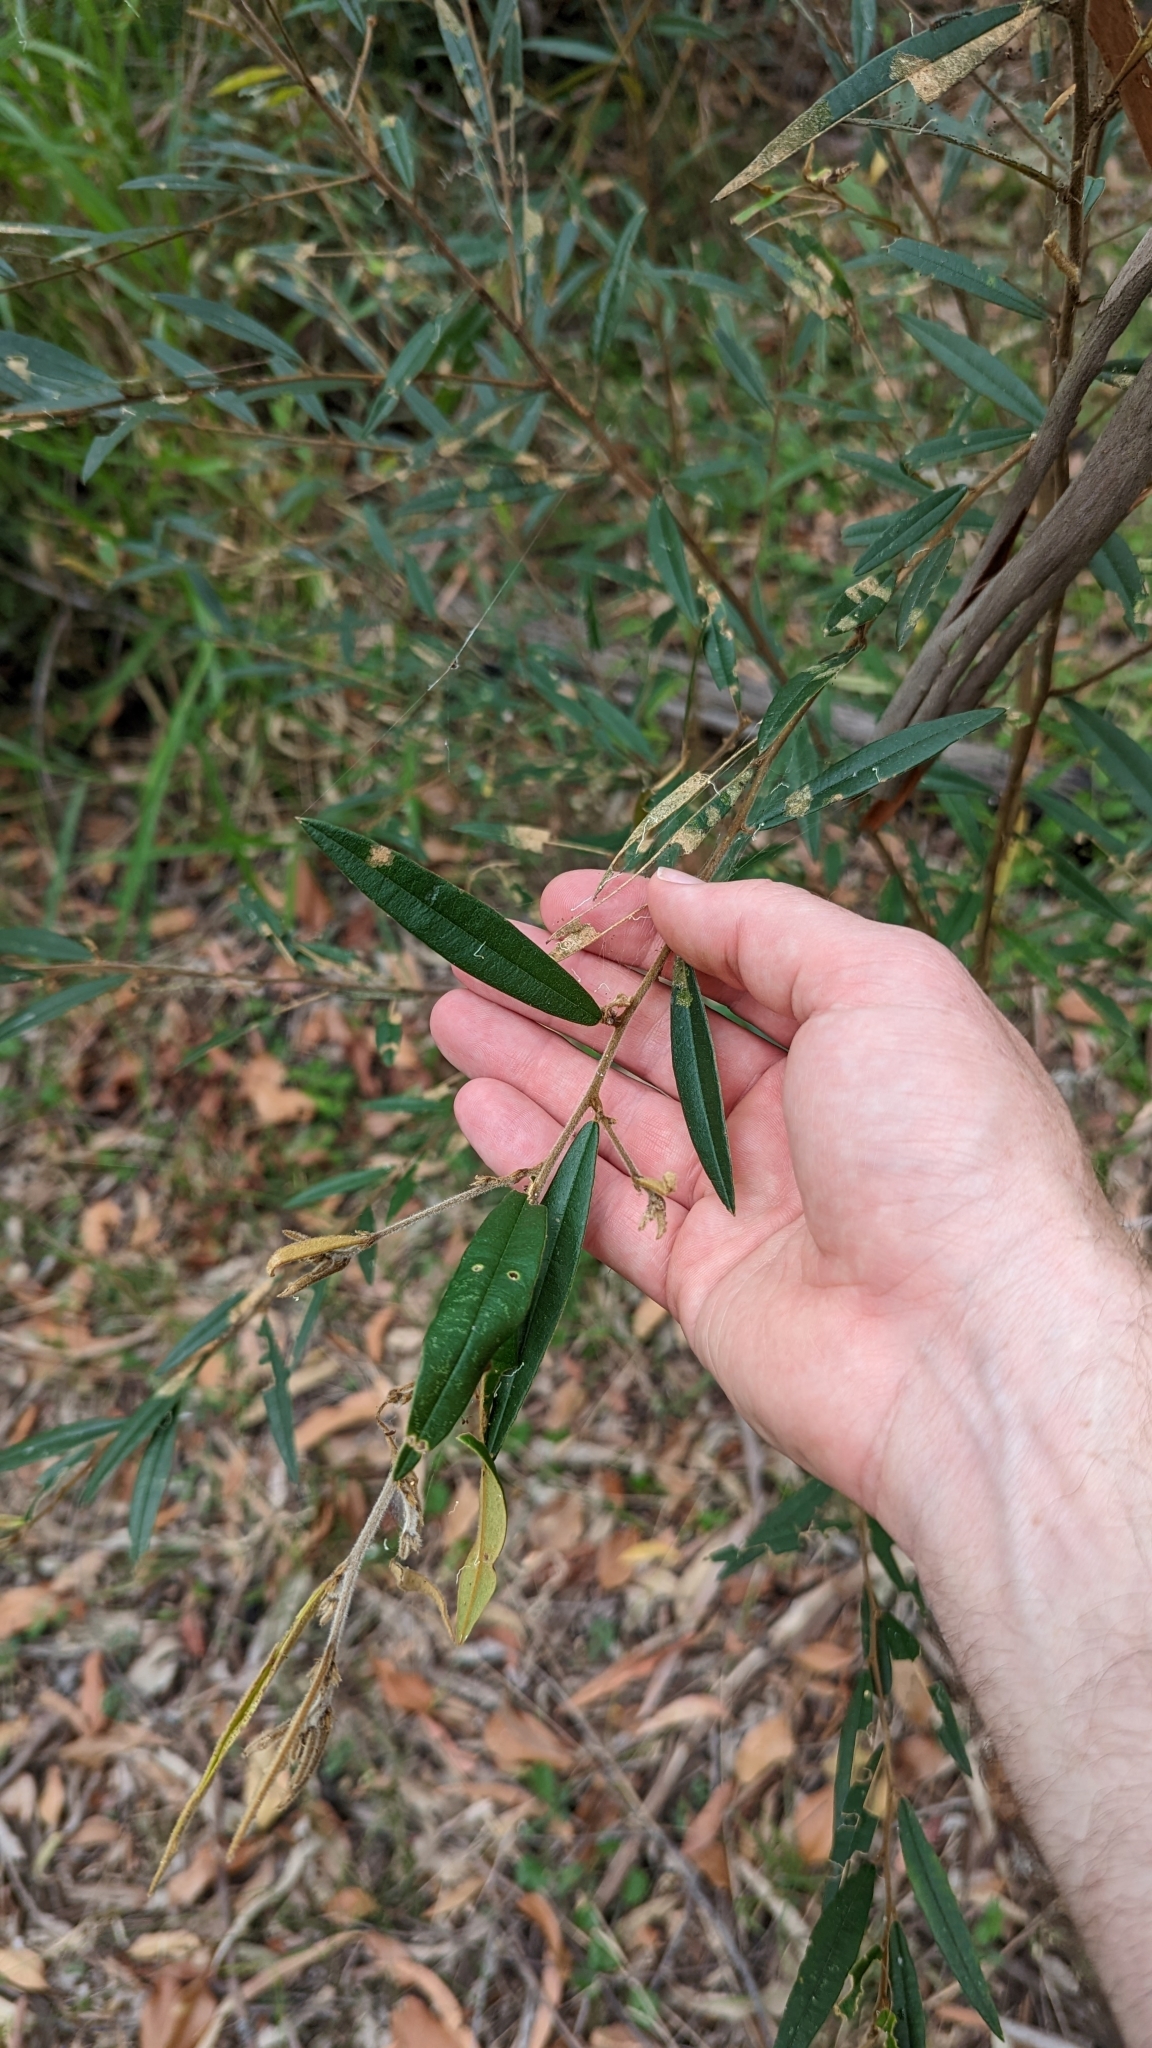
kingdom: Plantae
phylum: Tracheophyta
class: Magnoliopsida
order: Fabales
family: Fabaceae
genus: Hovea
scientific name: Hovea acutifolia
